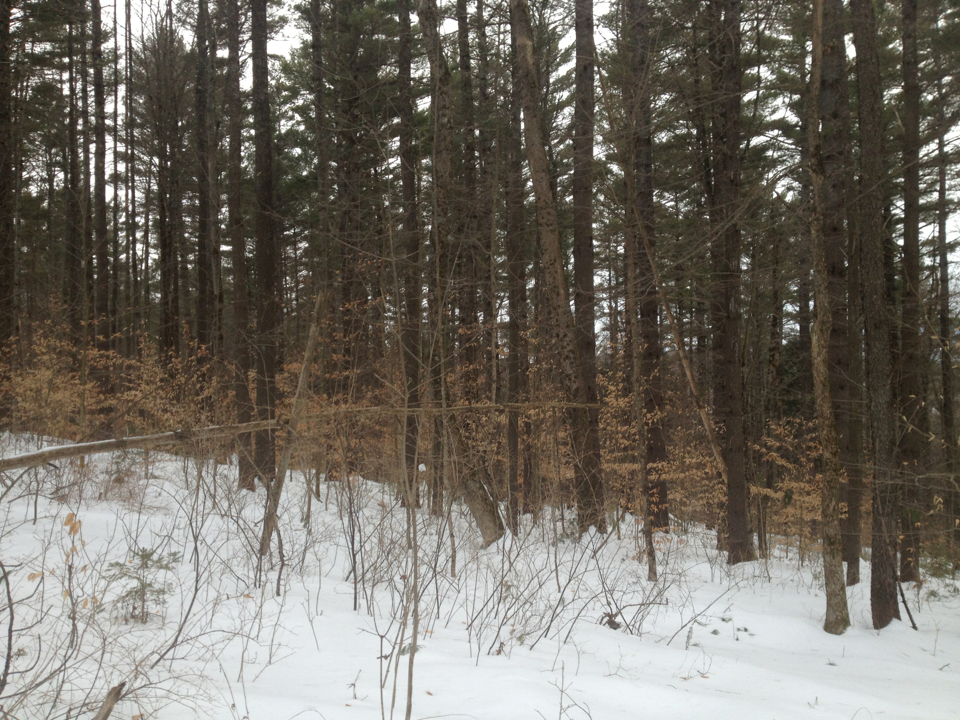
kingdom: Plantae
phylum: Tracheophyta
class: Magnoliopsida
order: Fagales
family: Fagaceae
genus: Fagus
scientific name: Fagus grandifolia
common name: American beech
